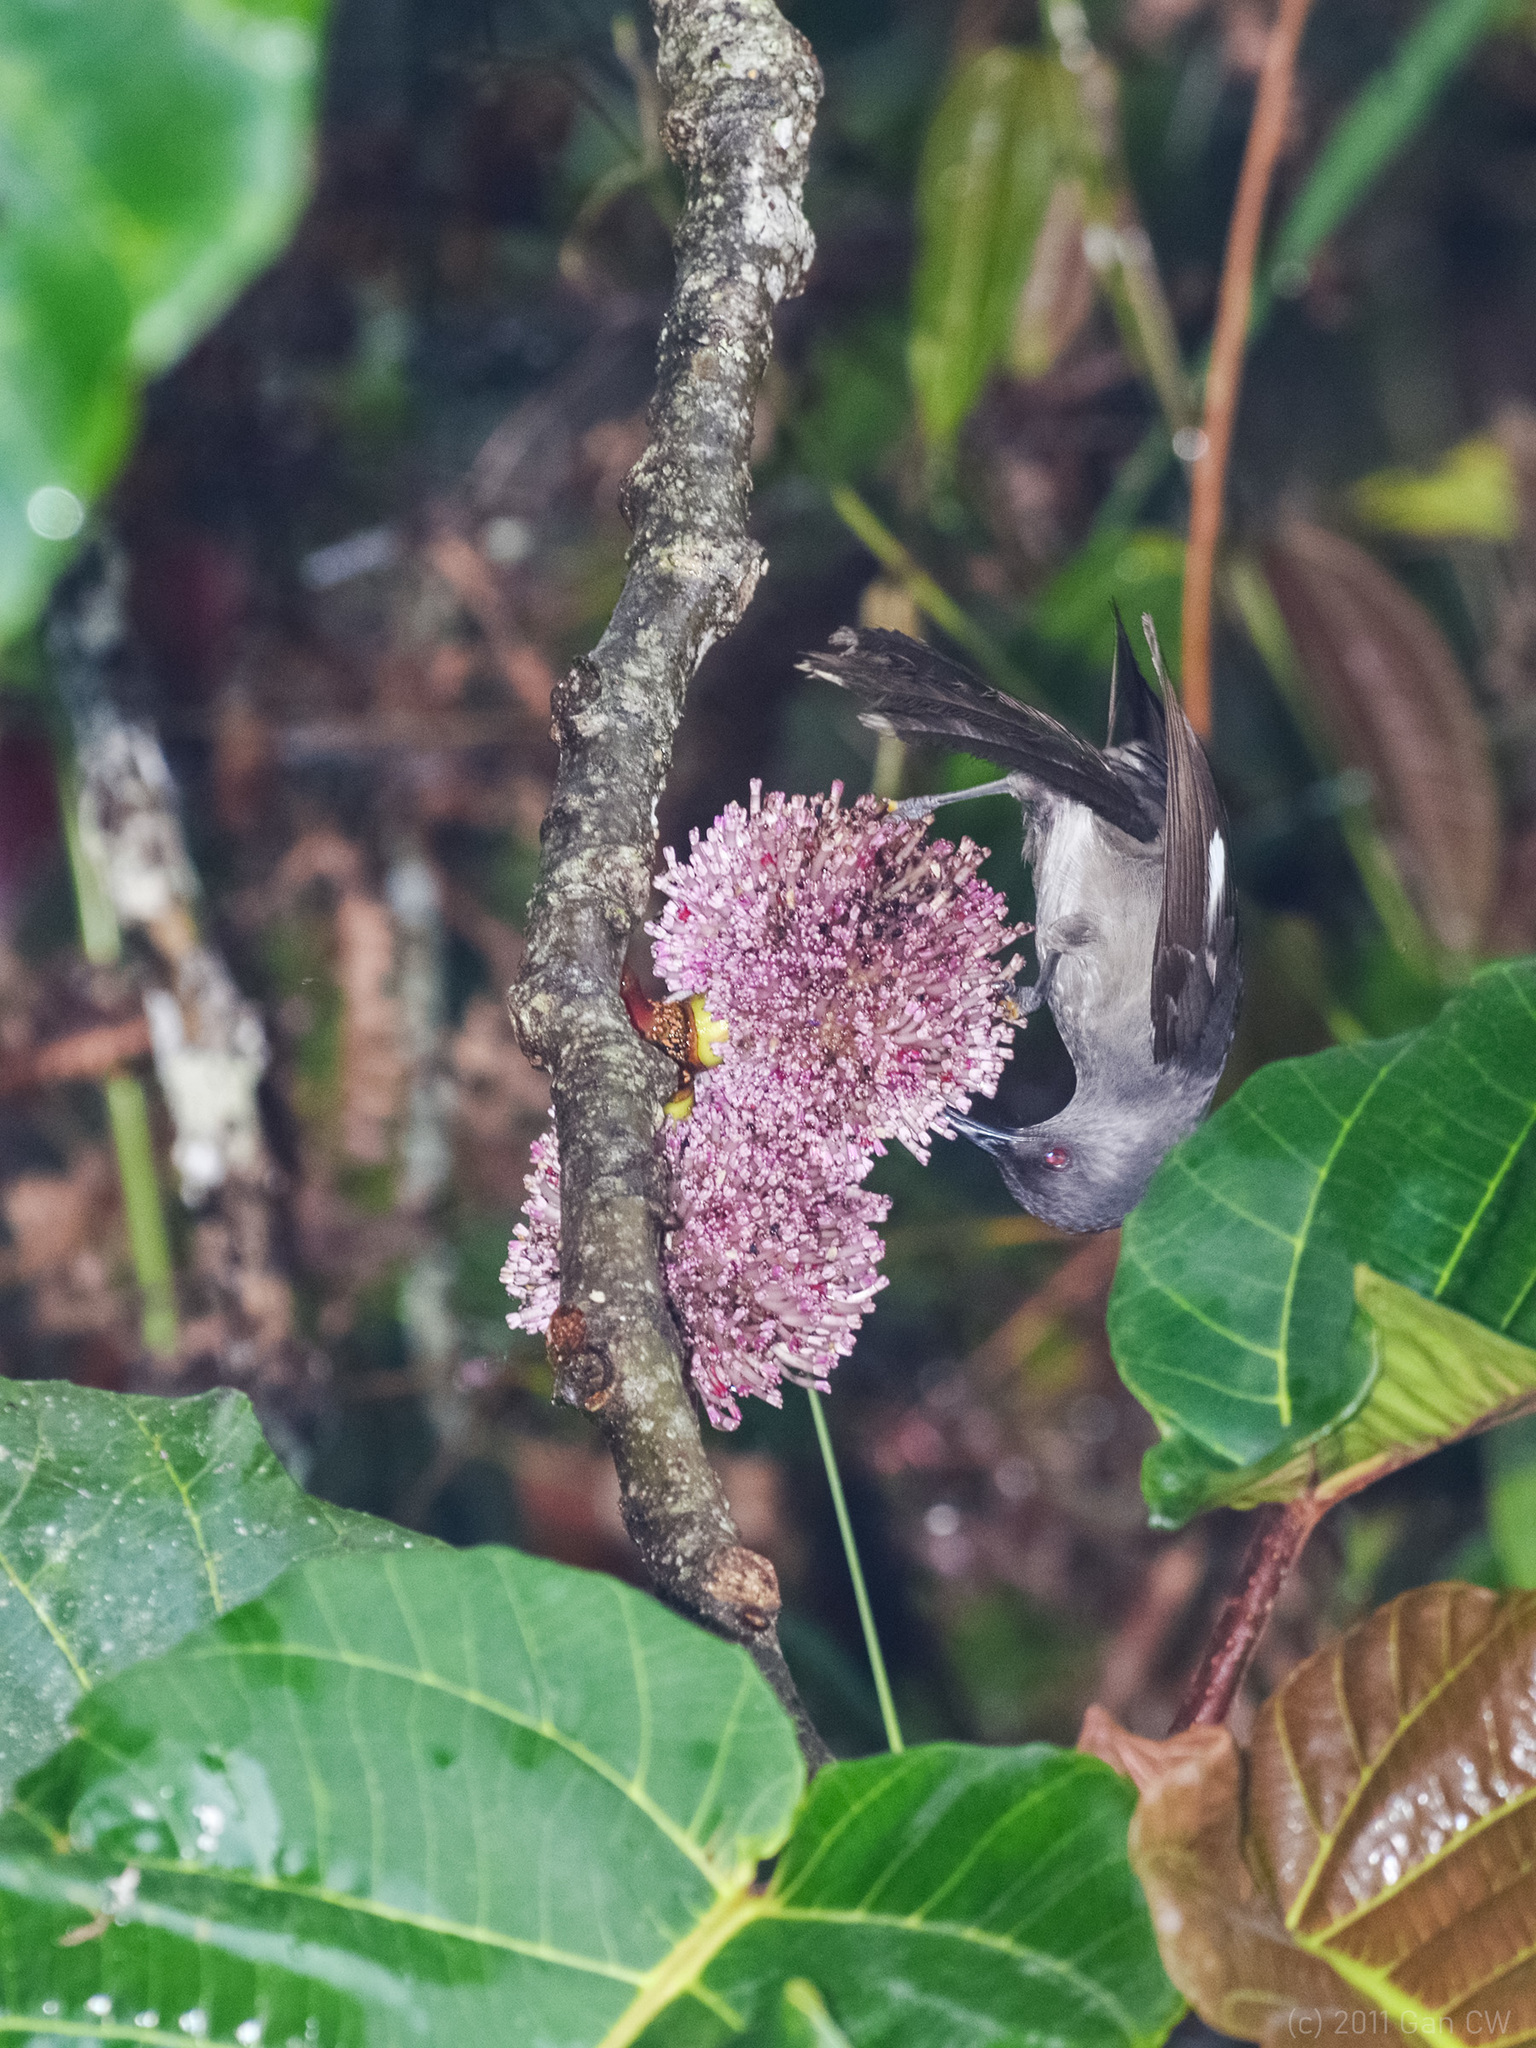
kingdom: Animalia
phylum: Chordata
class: Aves
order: Passeriformes
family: Leiothrichidae
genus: Heterophasia
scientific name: Heterophasia picaoides
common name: Long-tailed sibia
